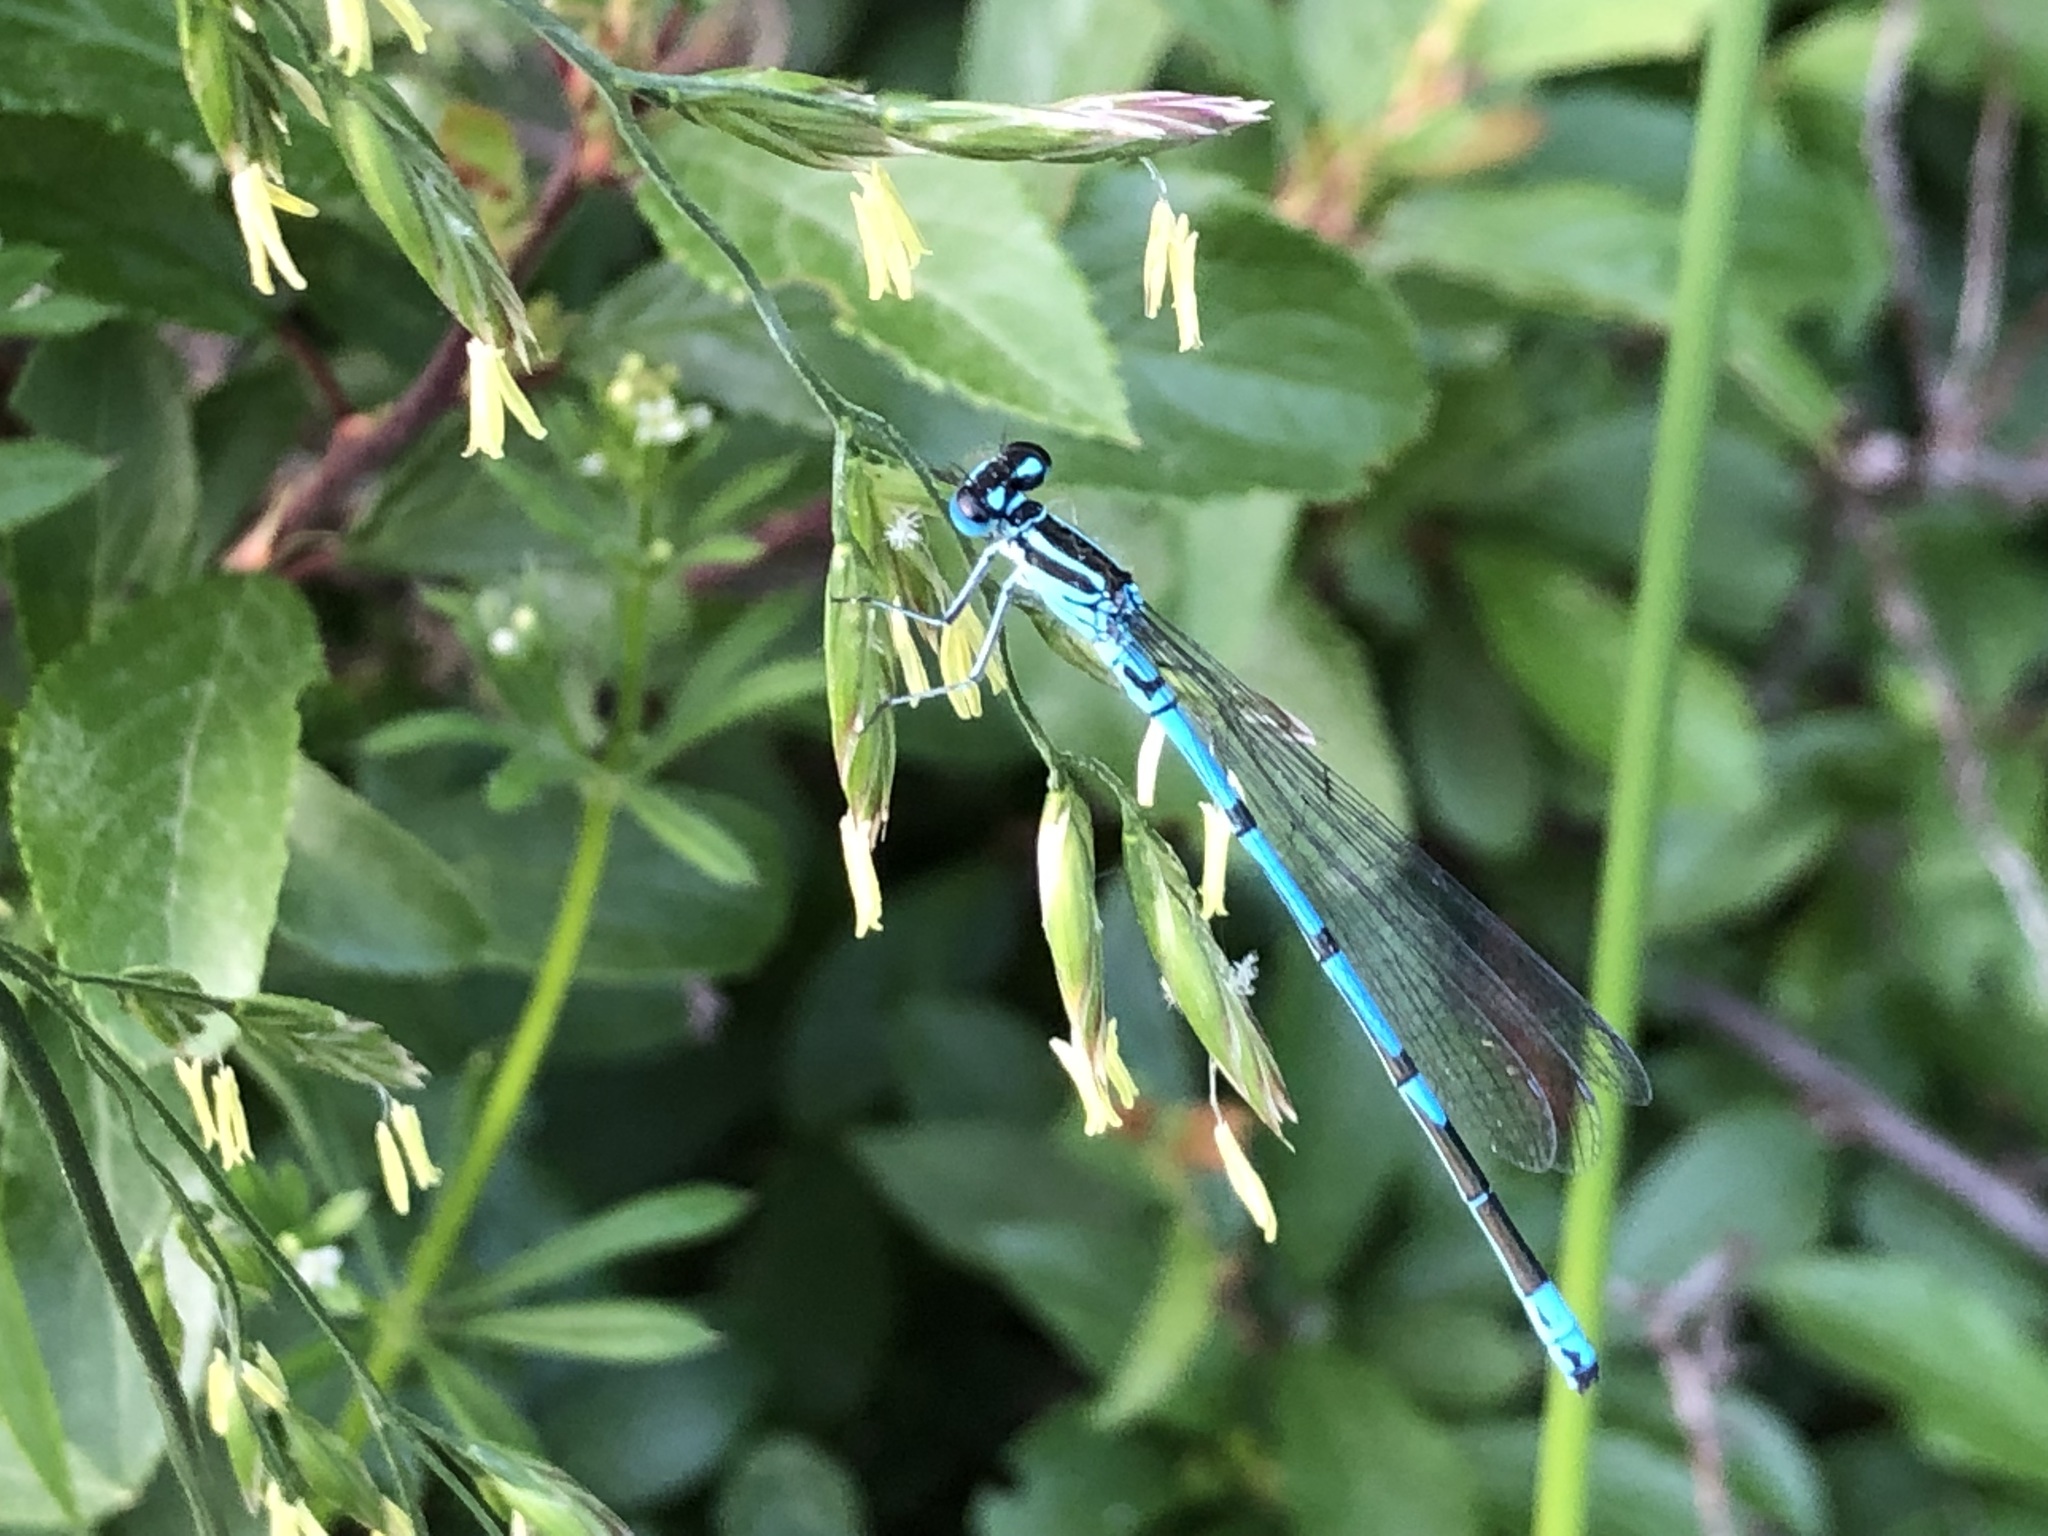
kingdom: Animalia
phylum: Arthropoda
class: Insecta
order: Odonata
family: Coenagrionidae
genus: Coenagrion
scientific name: Coenagrion puella
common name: Azure damselfly
